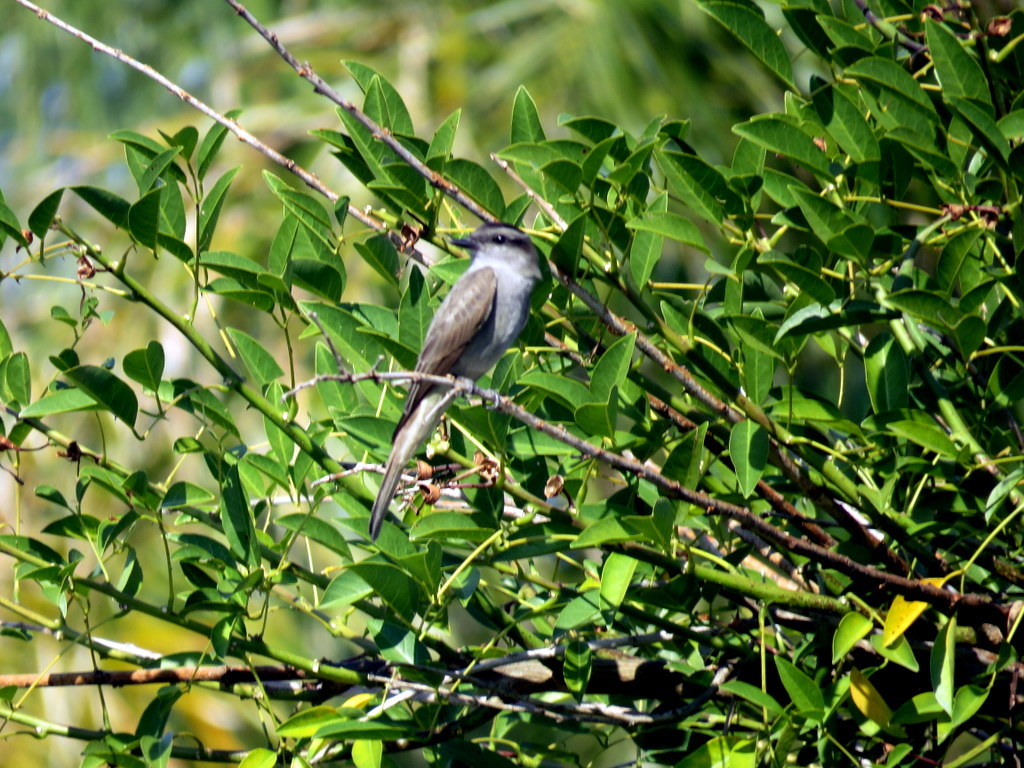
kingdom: Animalia
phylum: Chordata
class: Aves
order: Passeriformes
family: Tyrannidae
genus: Empidonomus
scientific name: Empidonomus aurantioatrocristatus
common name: Crowned slaty flycatcher
